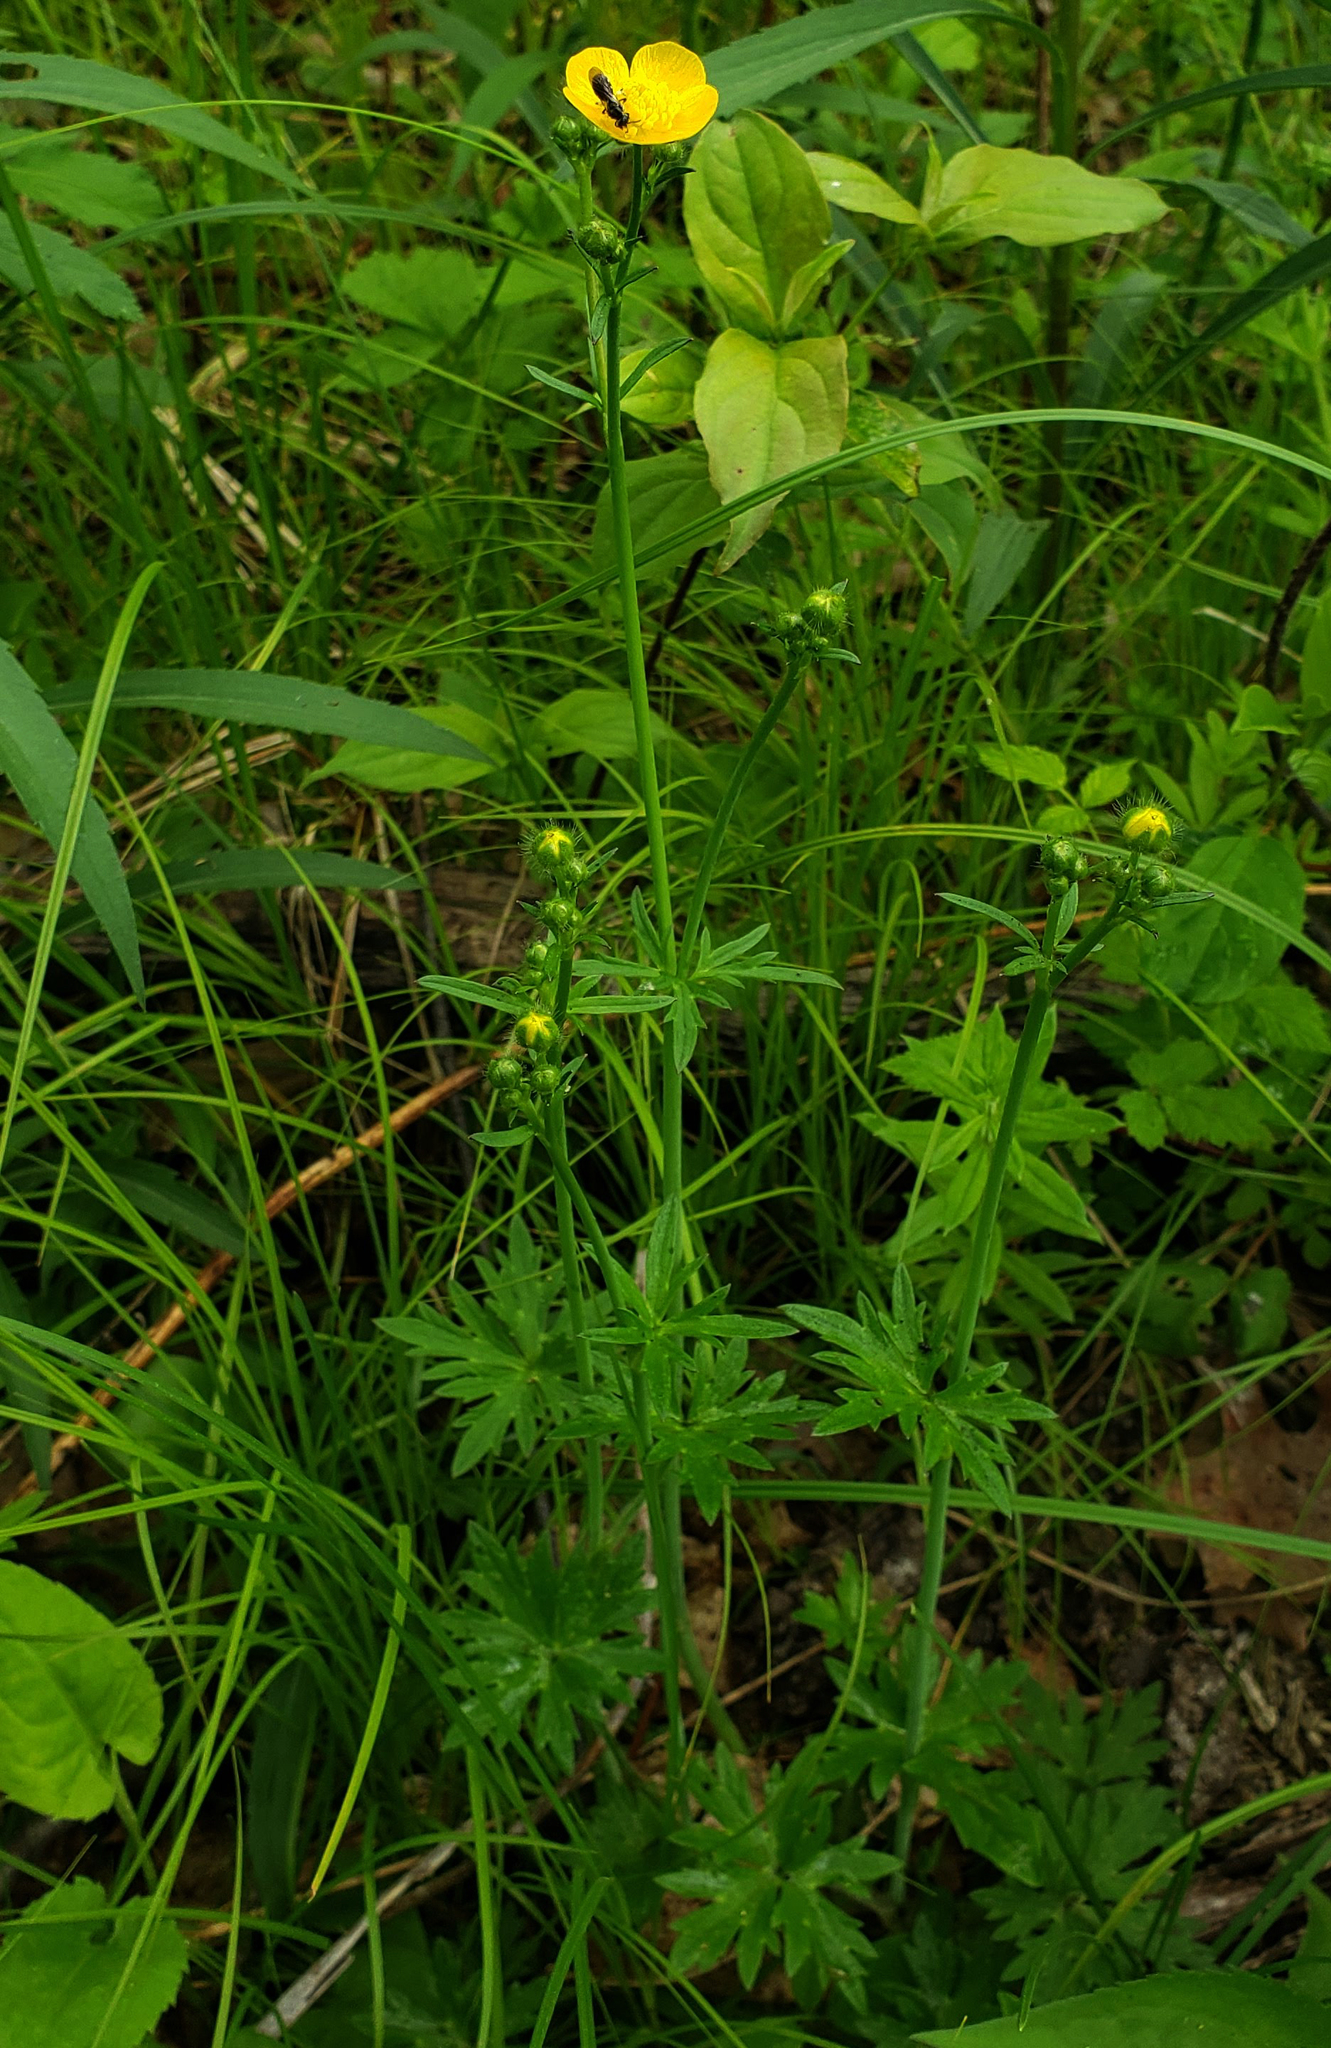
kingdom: Plantae
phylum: Tracheophyta
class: Magnoliopsida
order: Ranunculales
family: Ranunculaceae
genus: Ranunculus
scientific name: Ranunculus acris
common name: Meadow buttercup
